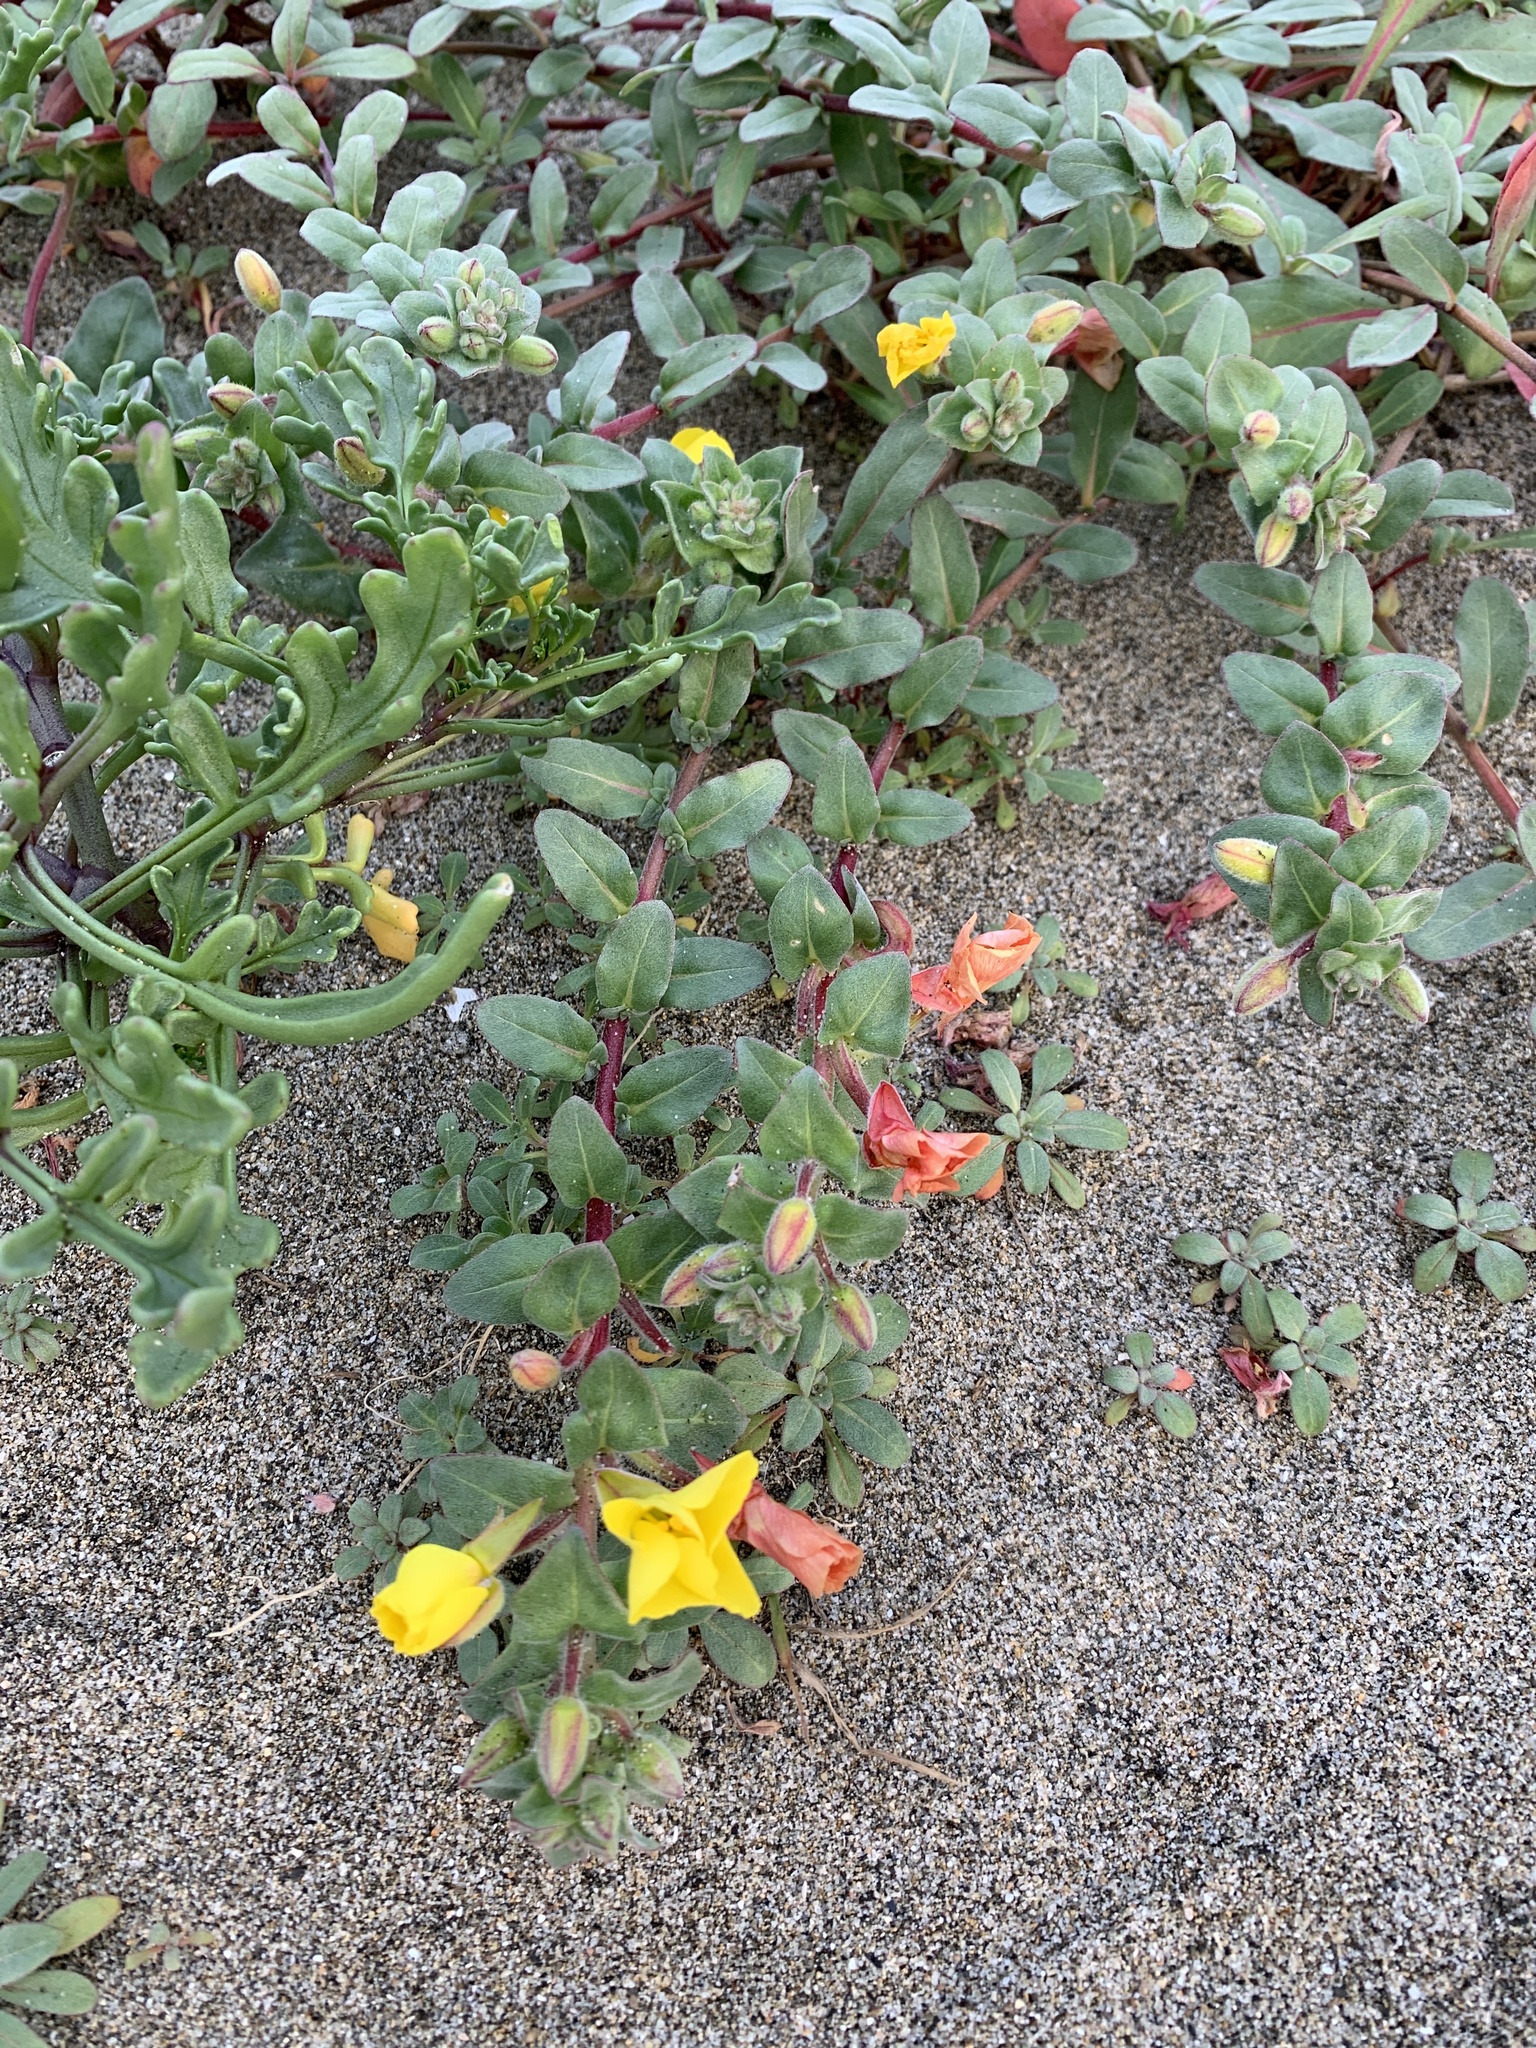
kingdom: Plantae
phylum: Tracheophyta
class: Magnoliopsida
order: Myrtales
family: Onagraceae
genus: Camissoniopsis
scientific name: Camissoniopsis cheiranthifolia
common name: Beach suncup
